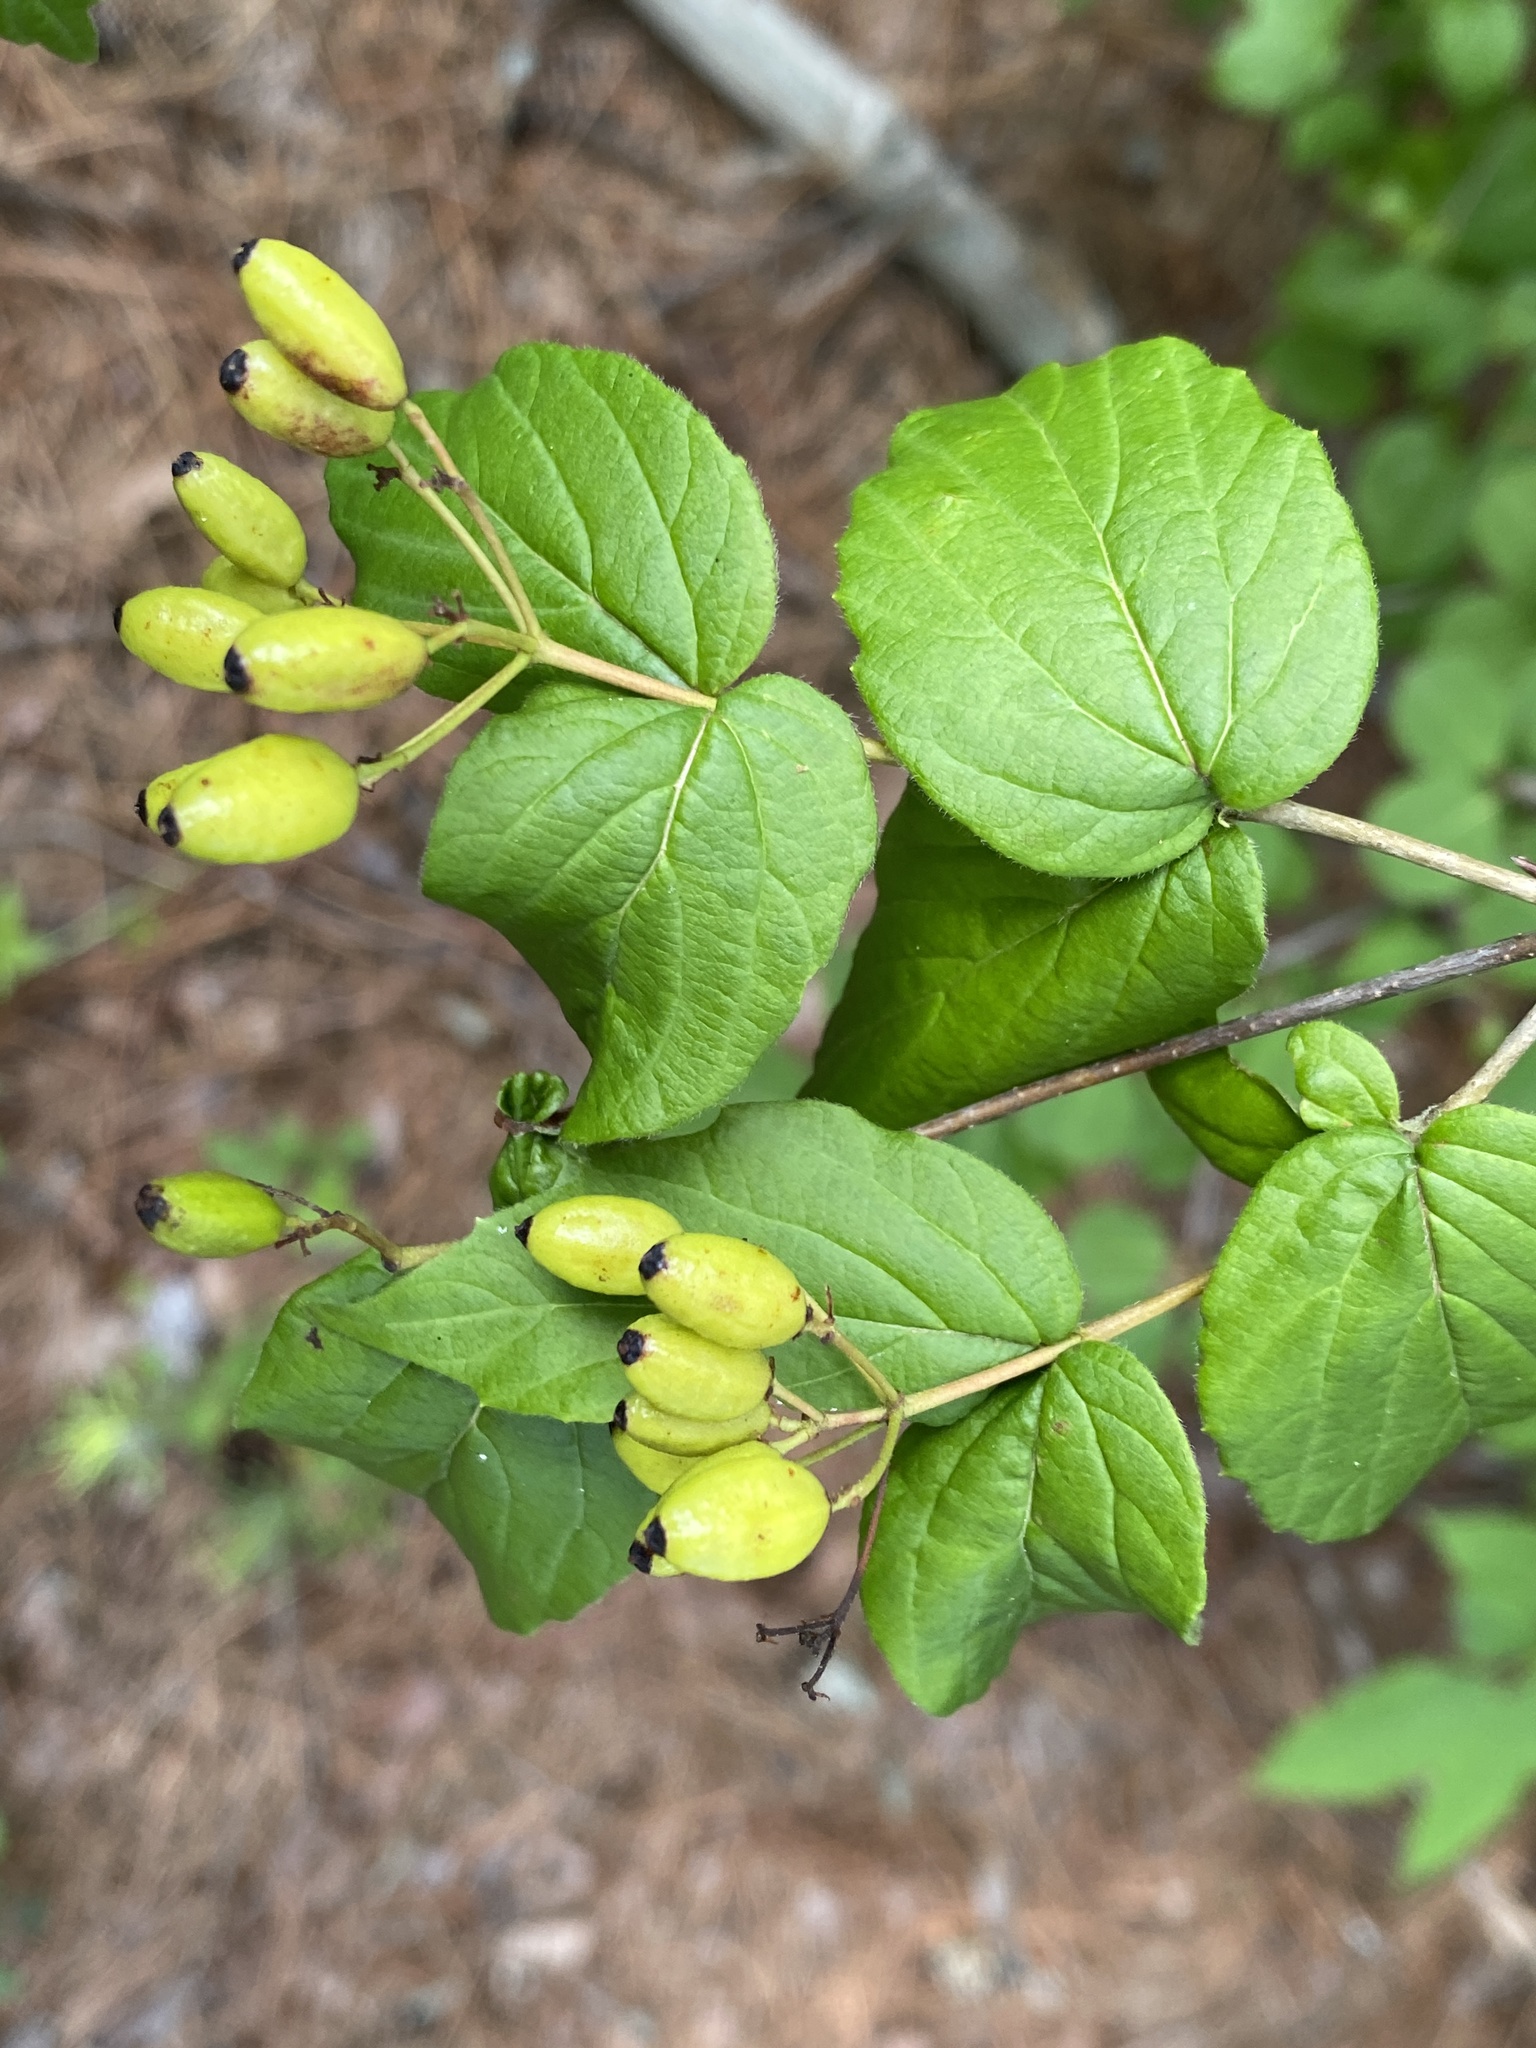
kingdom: Plantae
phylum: Tracheophyta
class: Magnoliopsida
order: Dipsacales
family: Viburnaceae
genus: Viburnum
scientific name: Viburnum rafinesqueanum
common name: Downy arrow-wood
